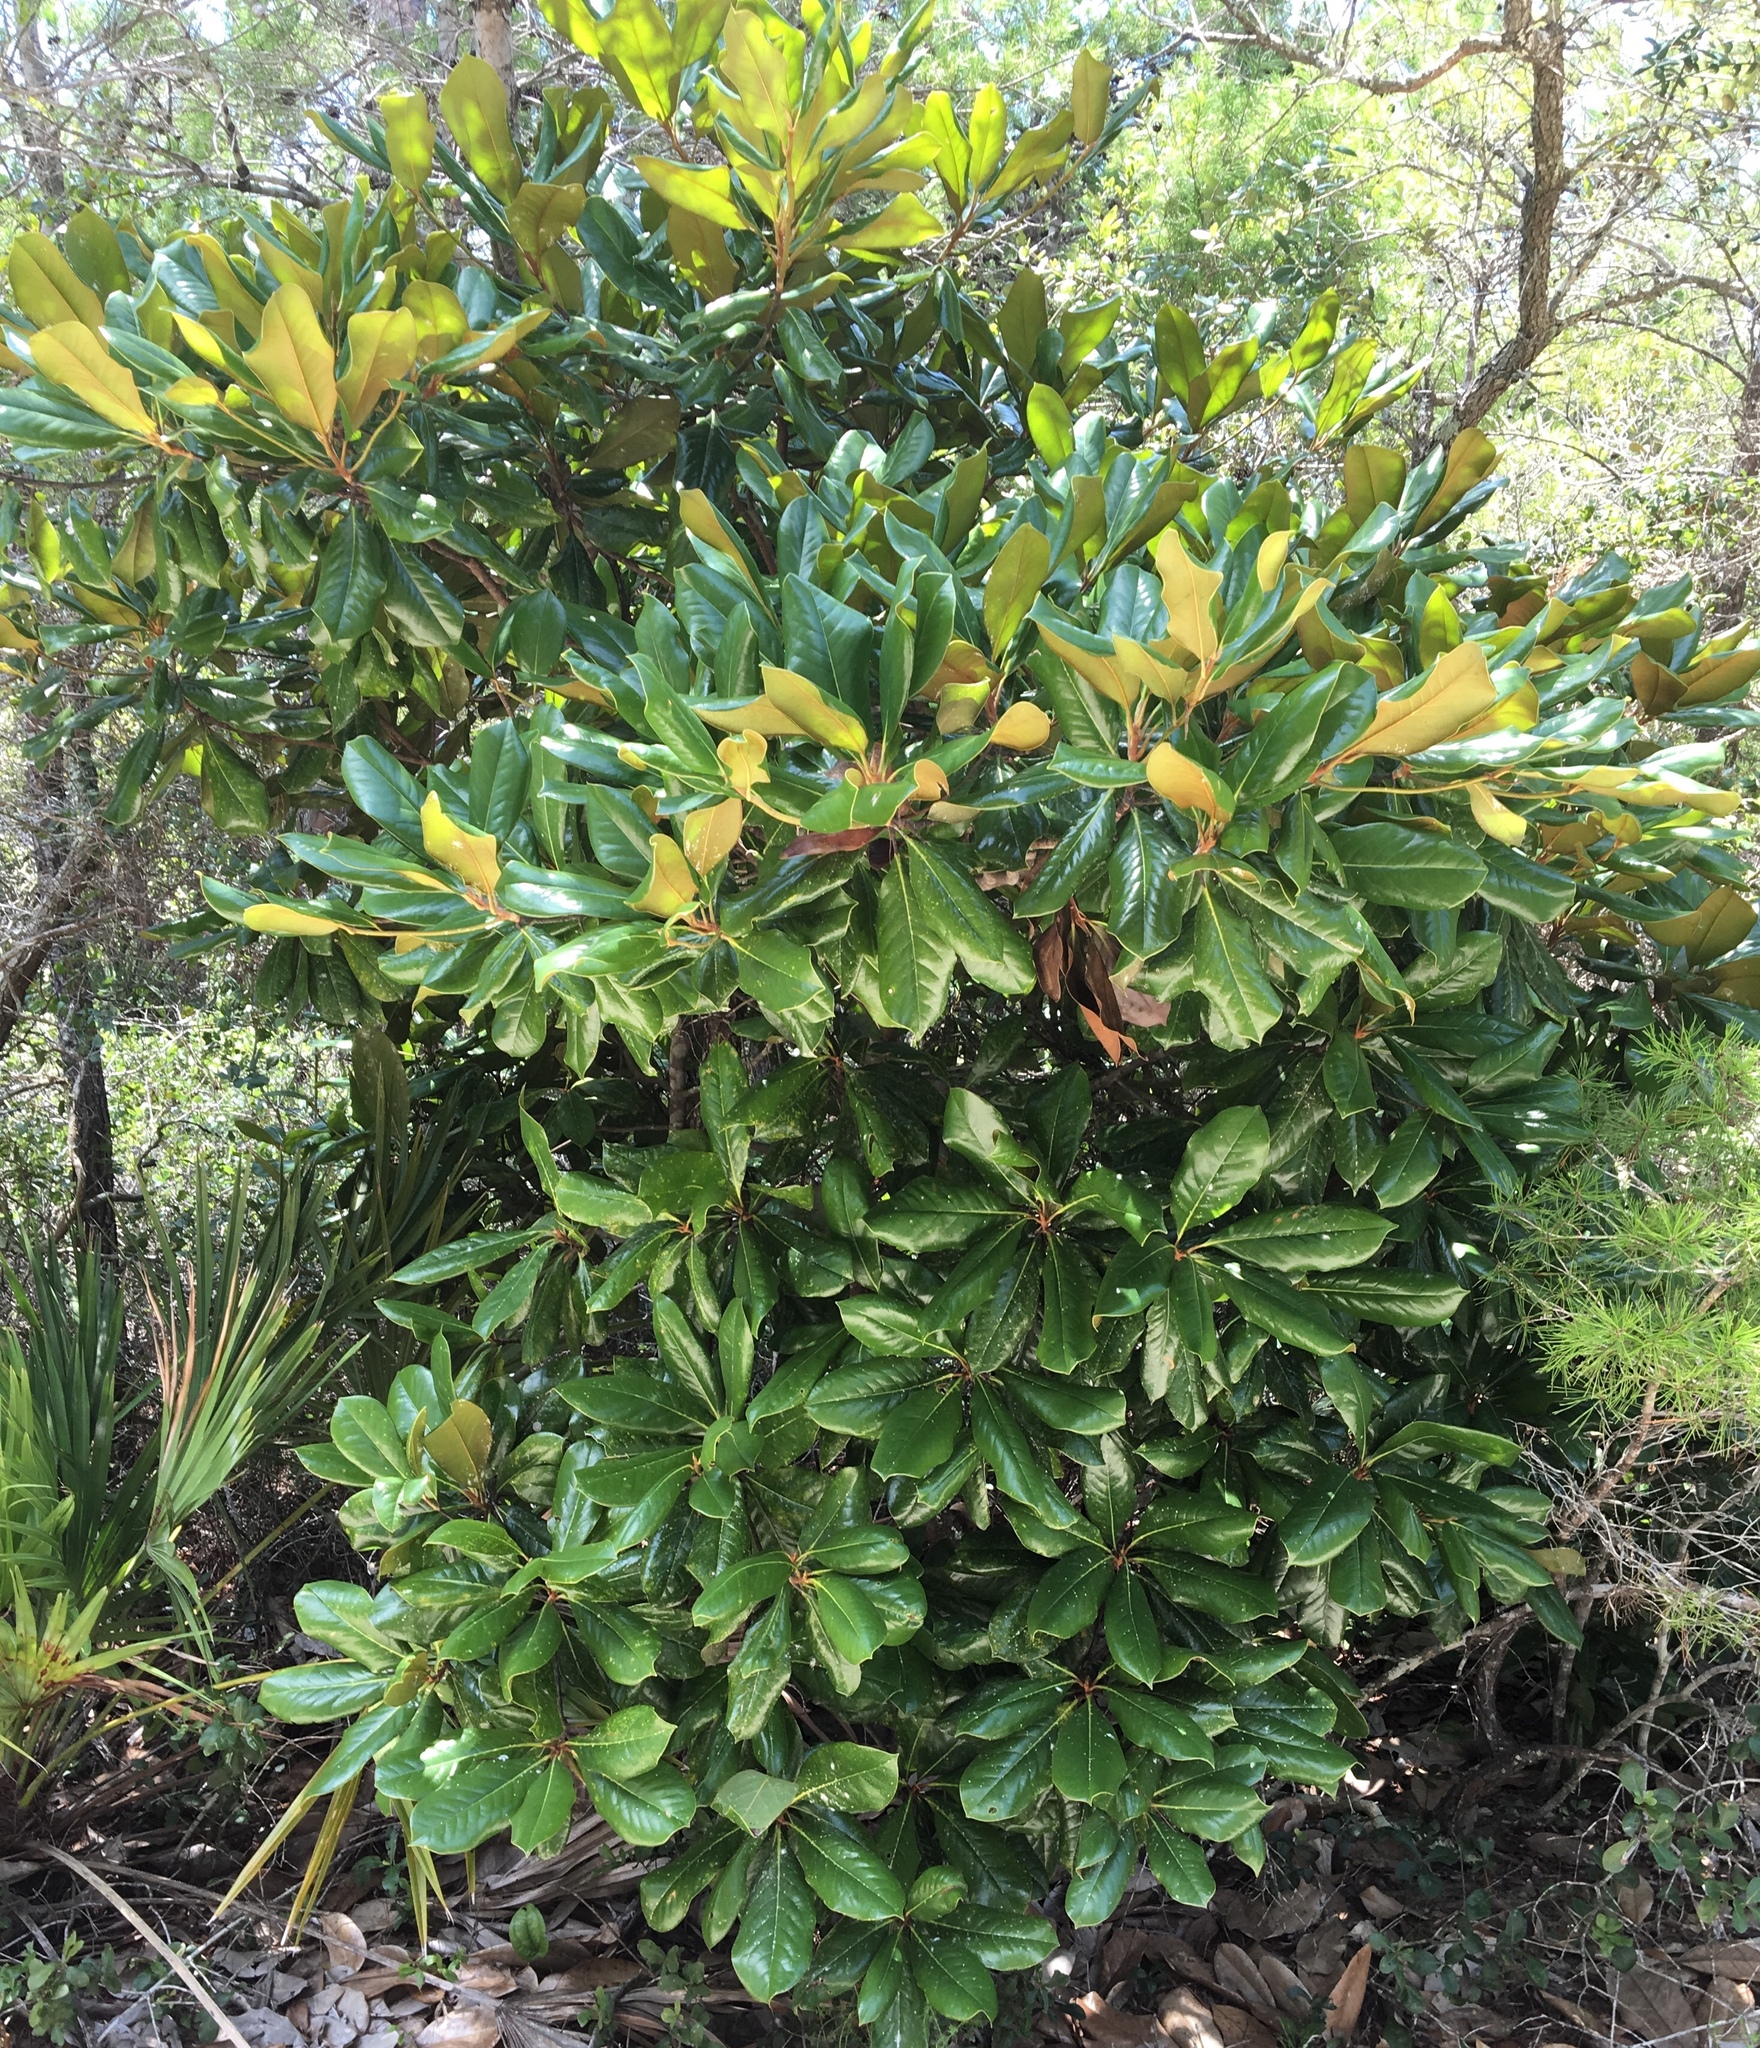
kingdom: Plantae
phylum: Tracheophyta
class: Magnoliopsida
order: Magnoliales
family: Magnoliaceae
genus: Magnolia
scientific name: Magnolia grandiflora
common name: Southern magnolia
